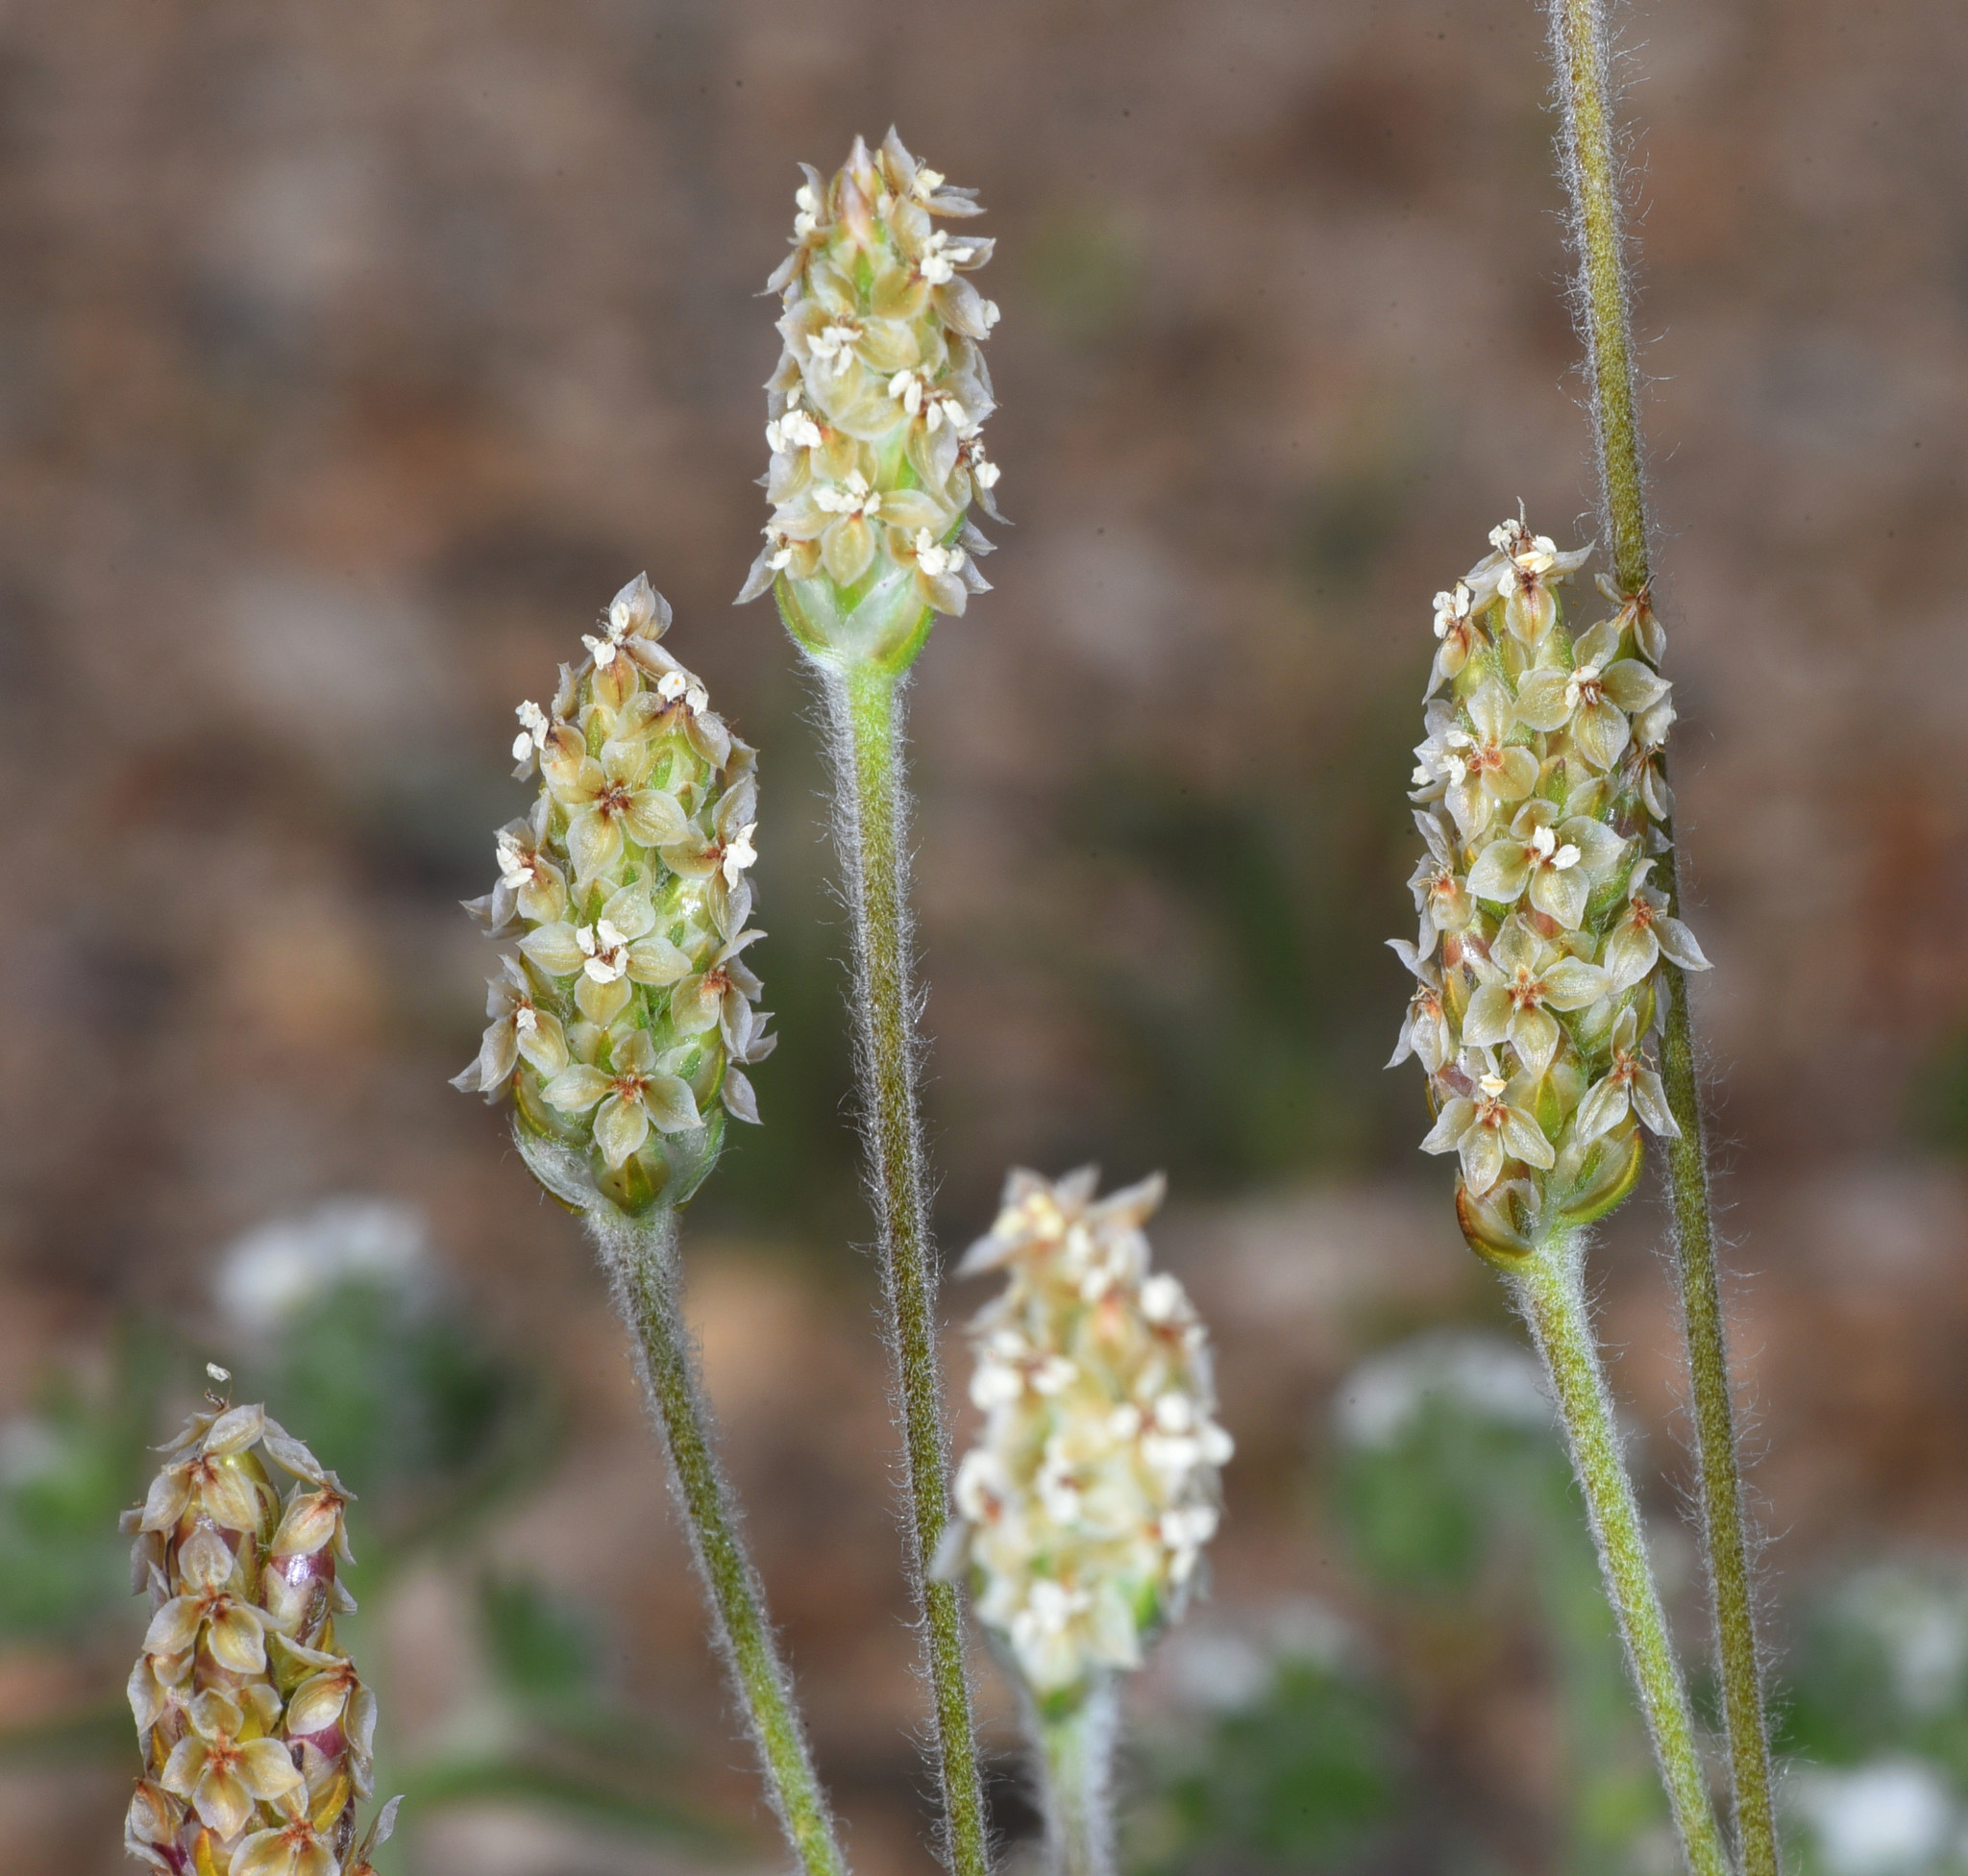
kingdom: Plantae
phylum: Tracheophyta
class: Magnoliopsida
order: Lamiales
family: Plantaginaceae
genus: Plantago
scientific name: Plantago ovata
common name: Blond plantain
